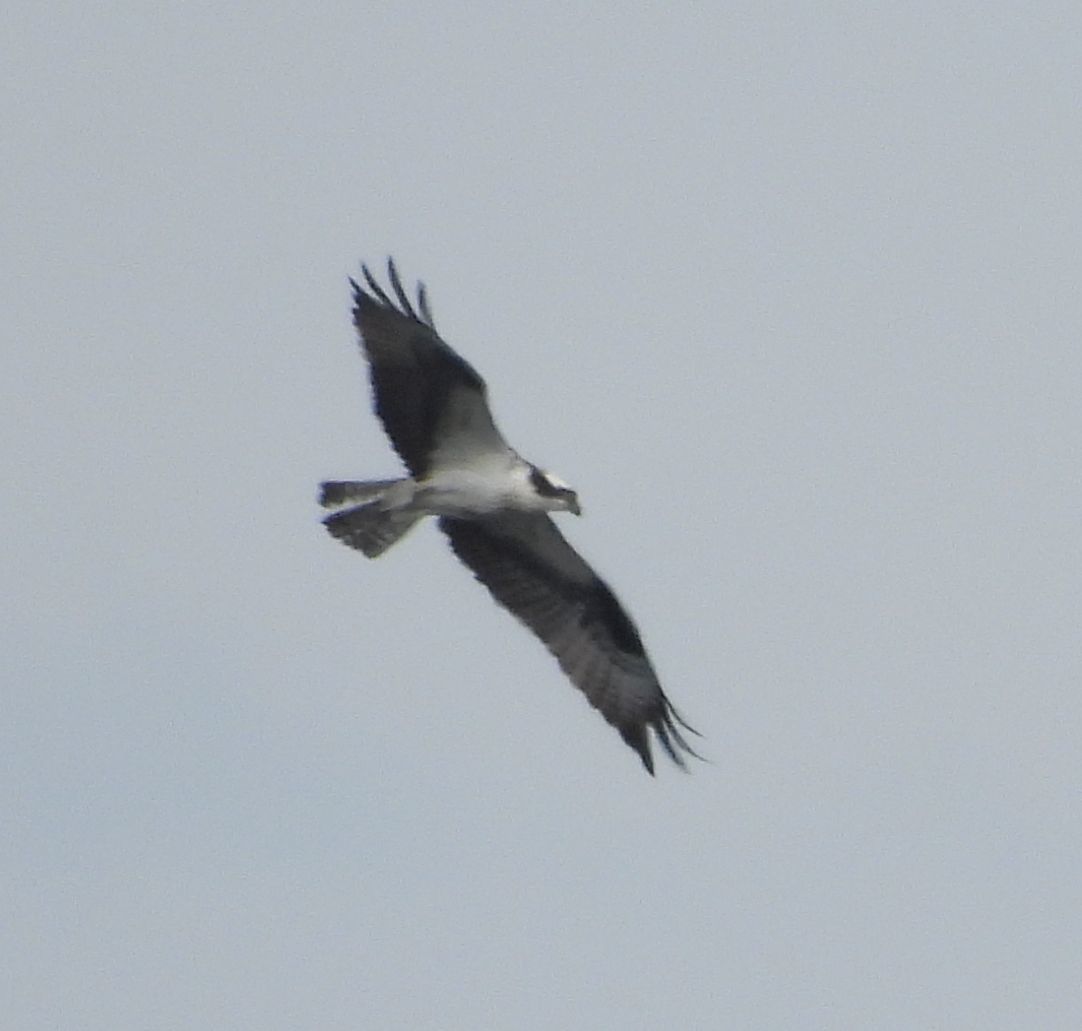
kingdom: Animalia
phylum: Chordata
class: Aves
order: Accipitriformes
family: Pandionidae
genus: Pandion
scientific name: Pandion haliaetus
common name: Osprey
